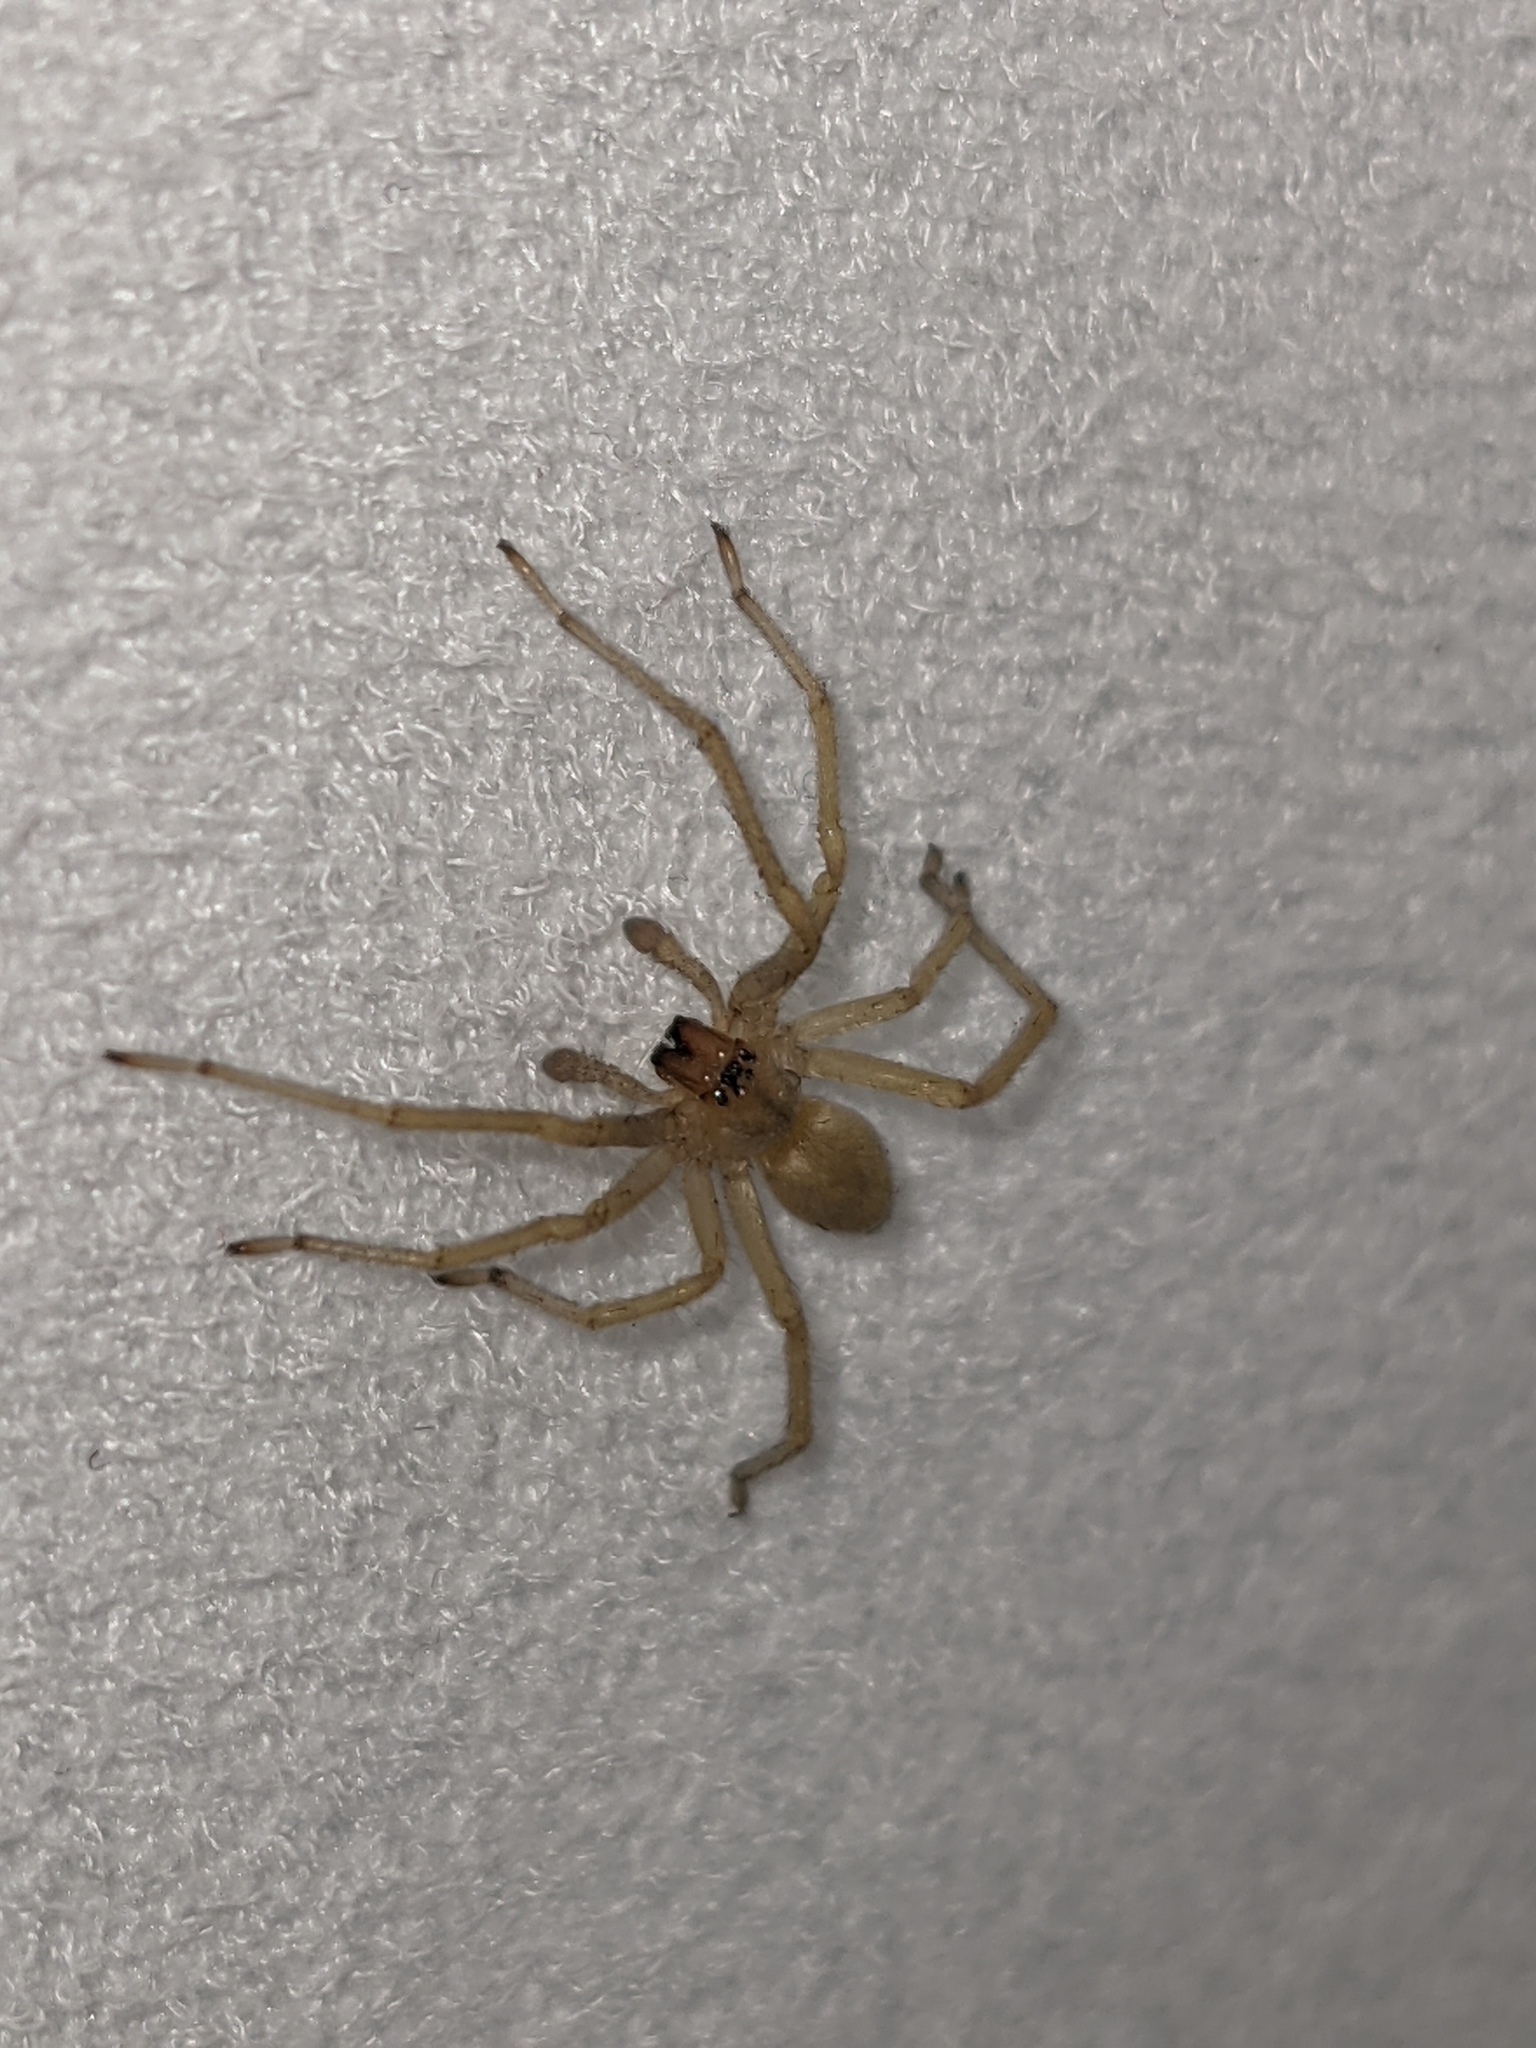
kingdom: Animalia
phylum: Arthropoda
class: Arachnida
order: Araneae
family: Cheiracanthiidae
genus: Cheiracanthium
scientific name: Cheiracanthium mildei
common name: Northern yellow sac spider
